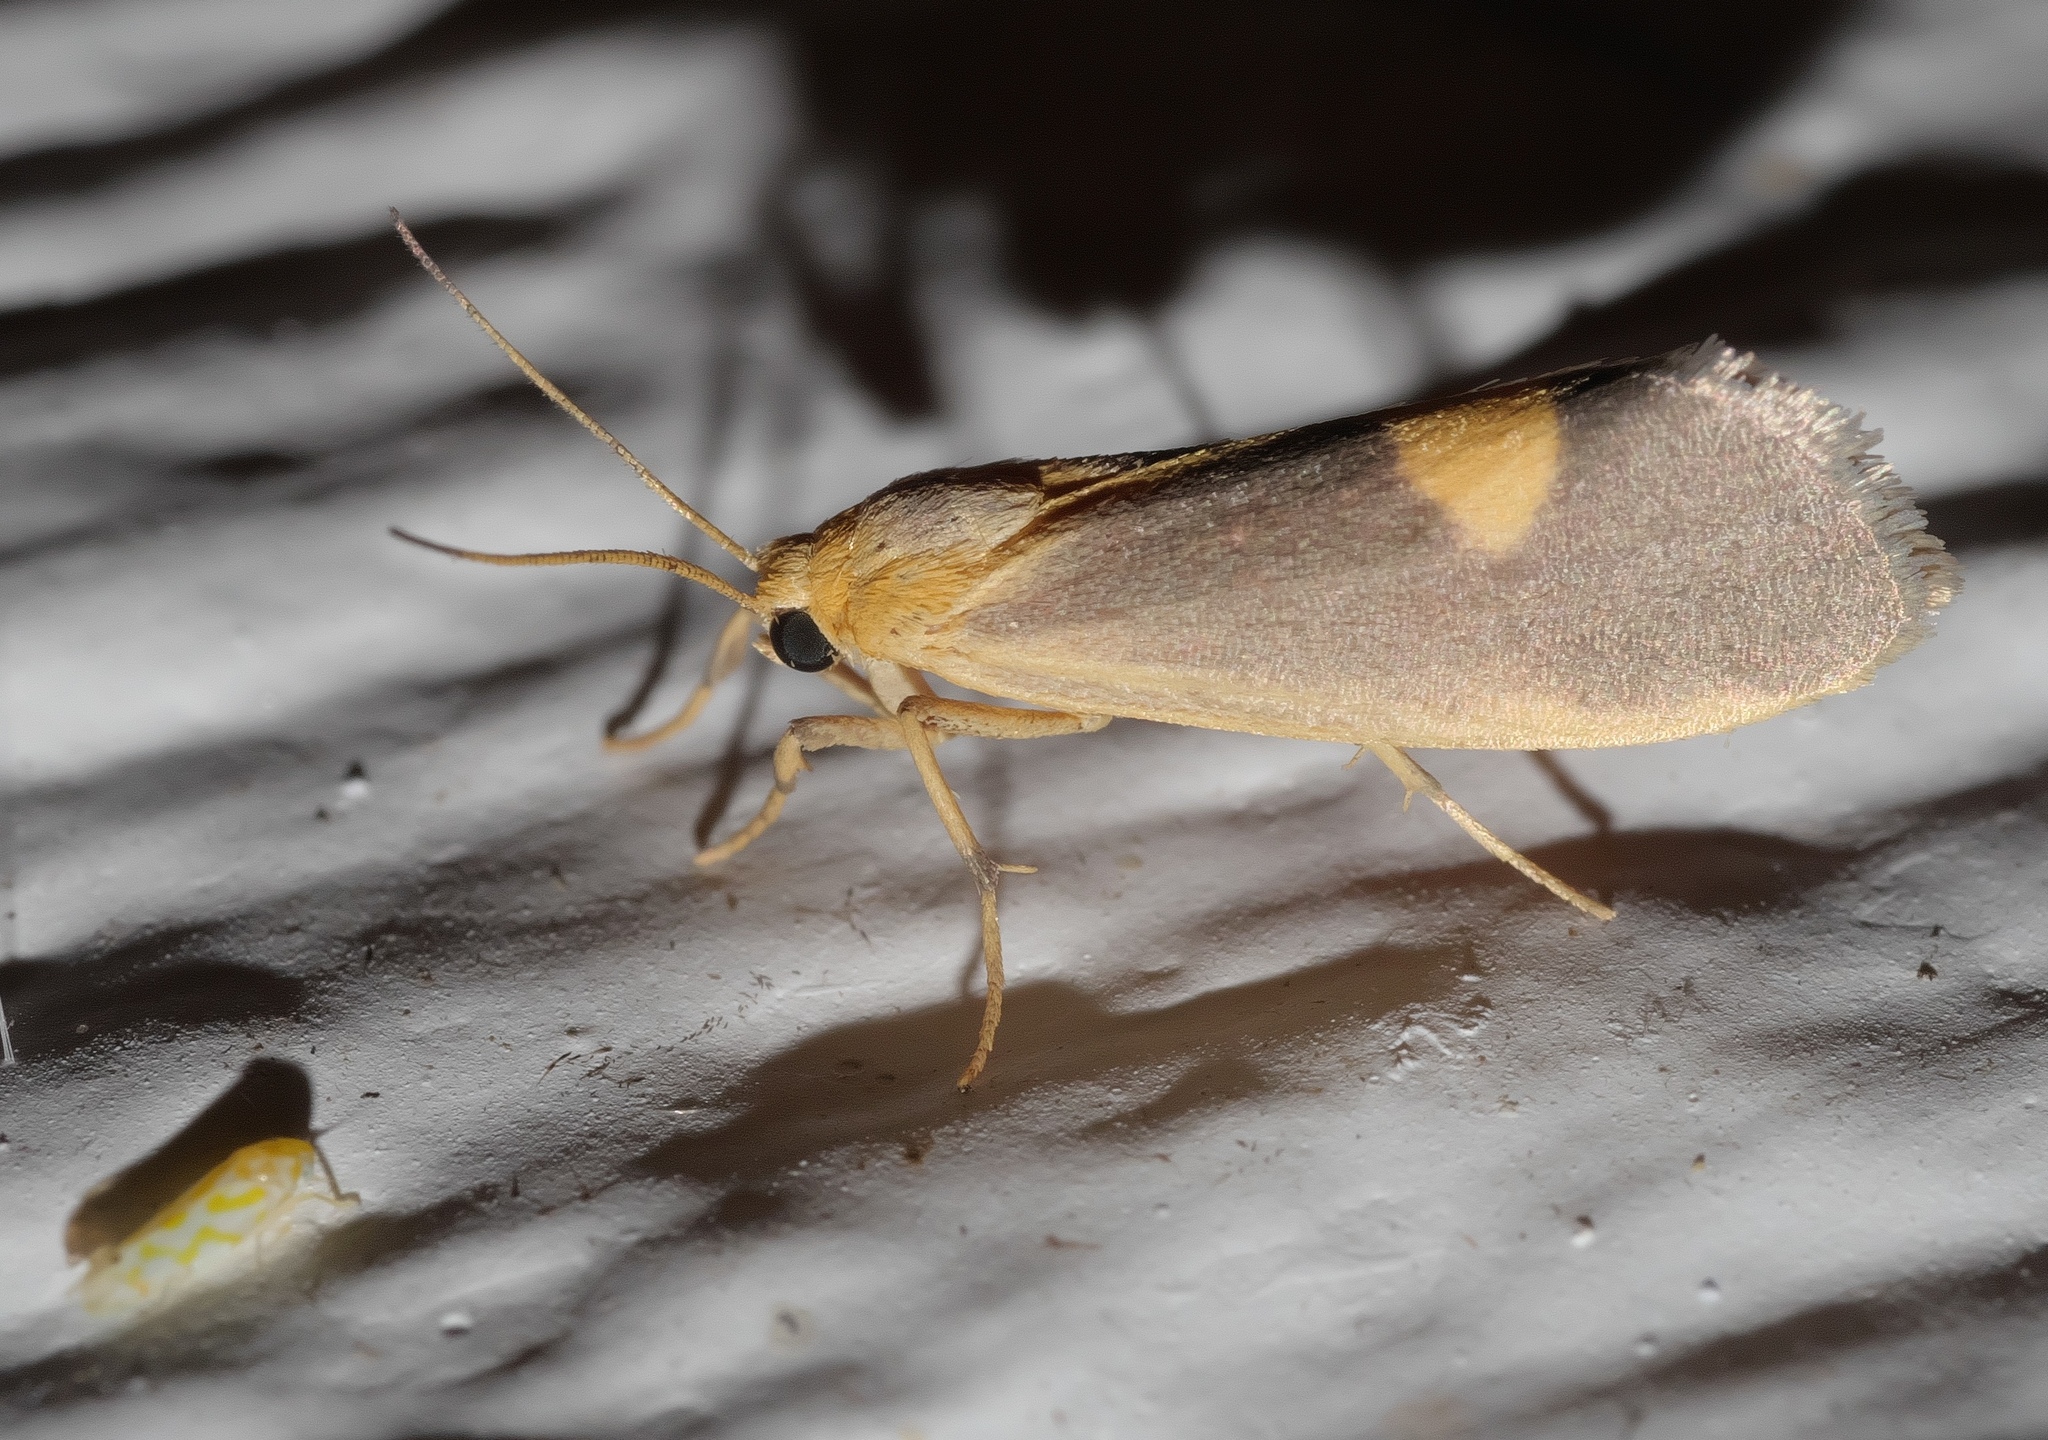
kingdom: Animalia
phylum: Arthropoda
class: Insecta
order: Lepidoptera
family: Erebidae
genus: Cisthene
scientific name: Cisthene plumbea
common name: Lead colored lichen moth
